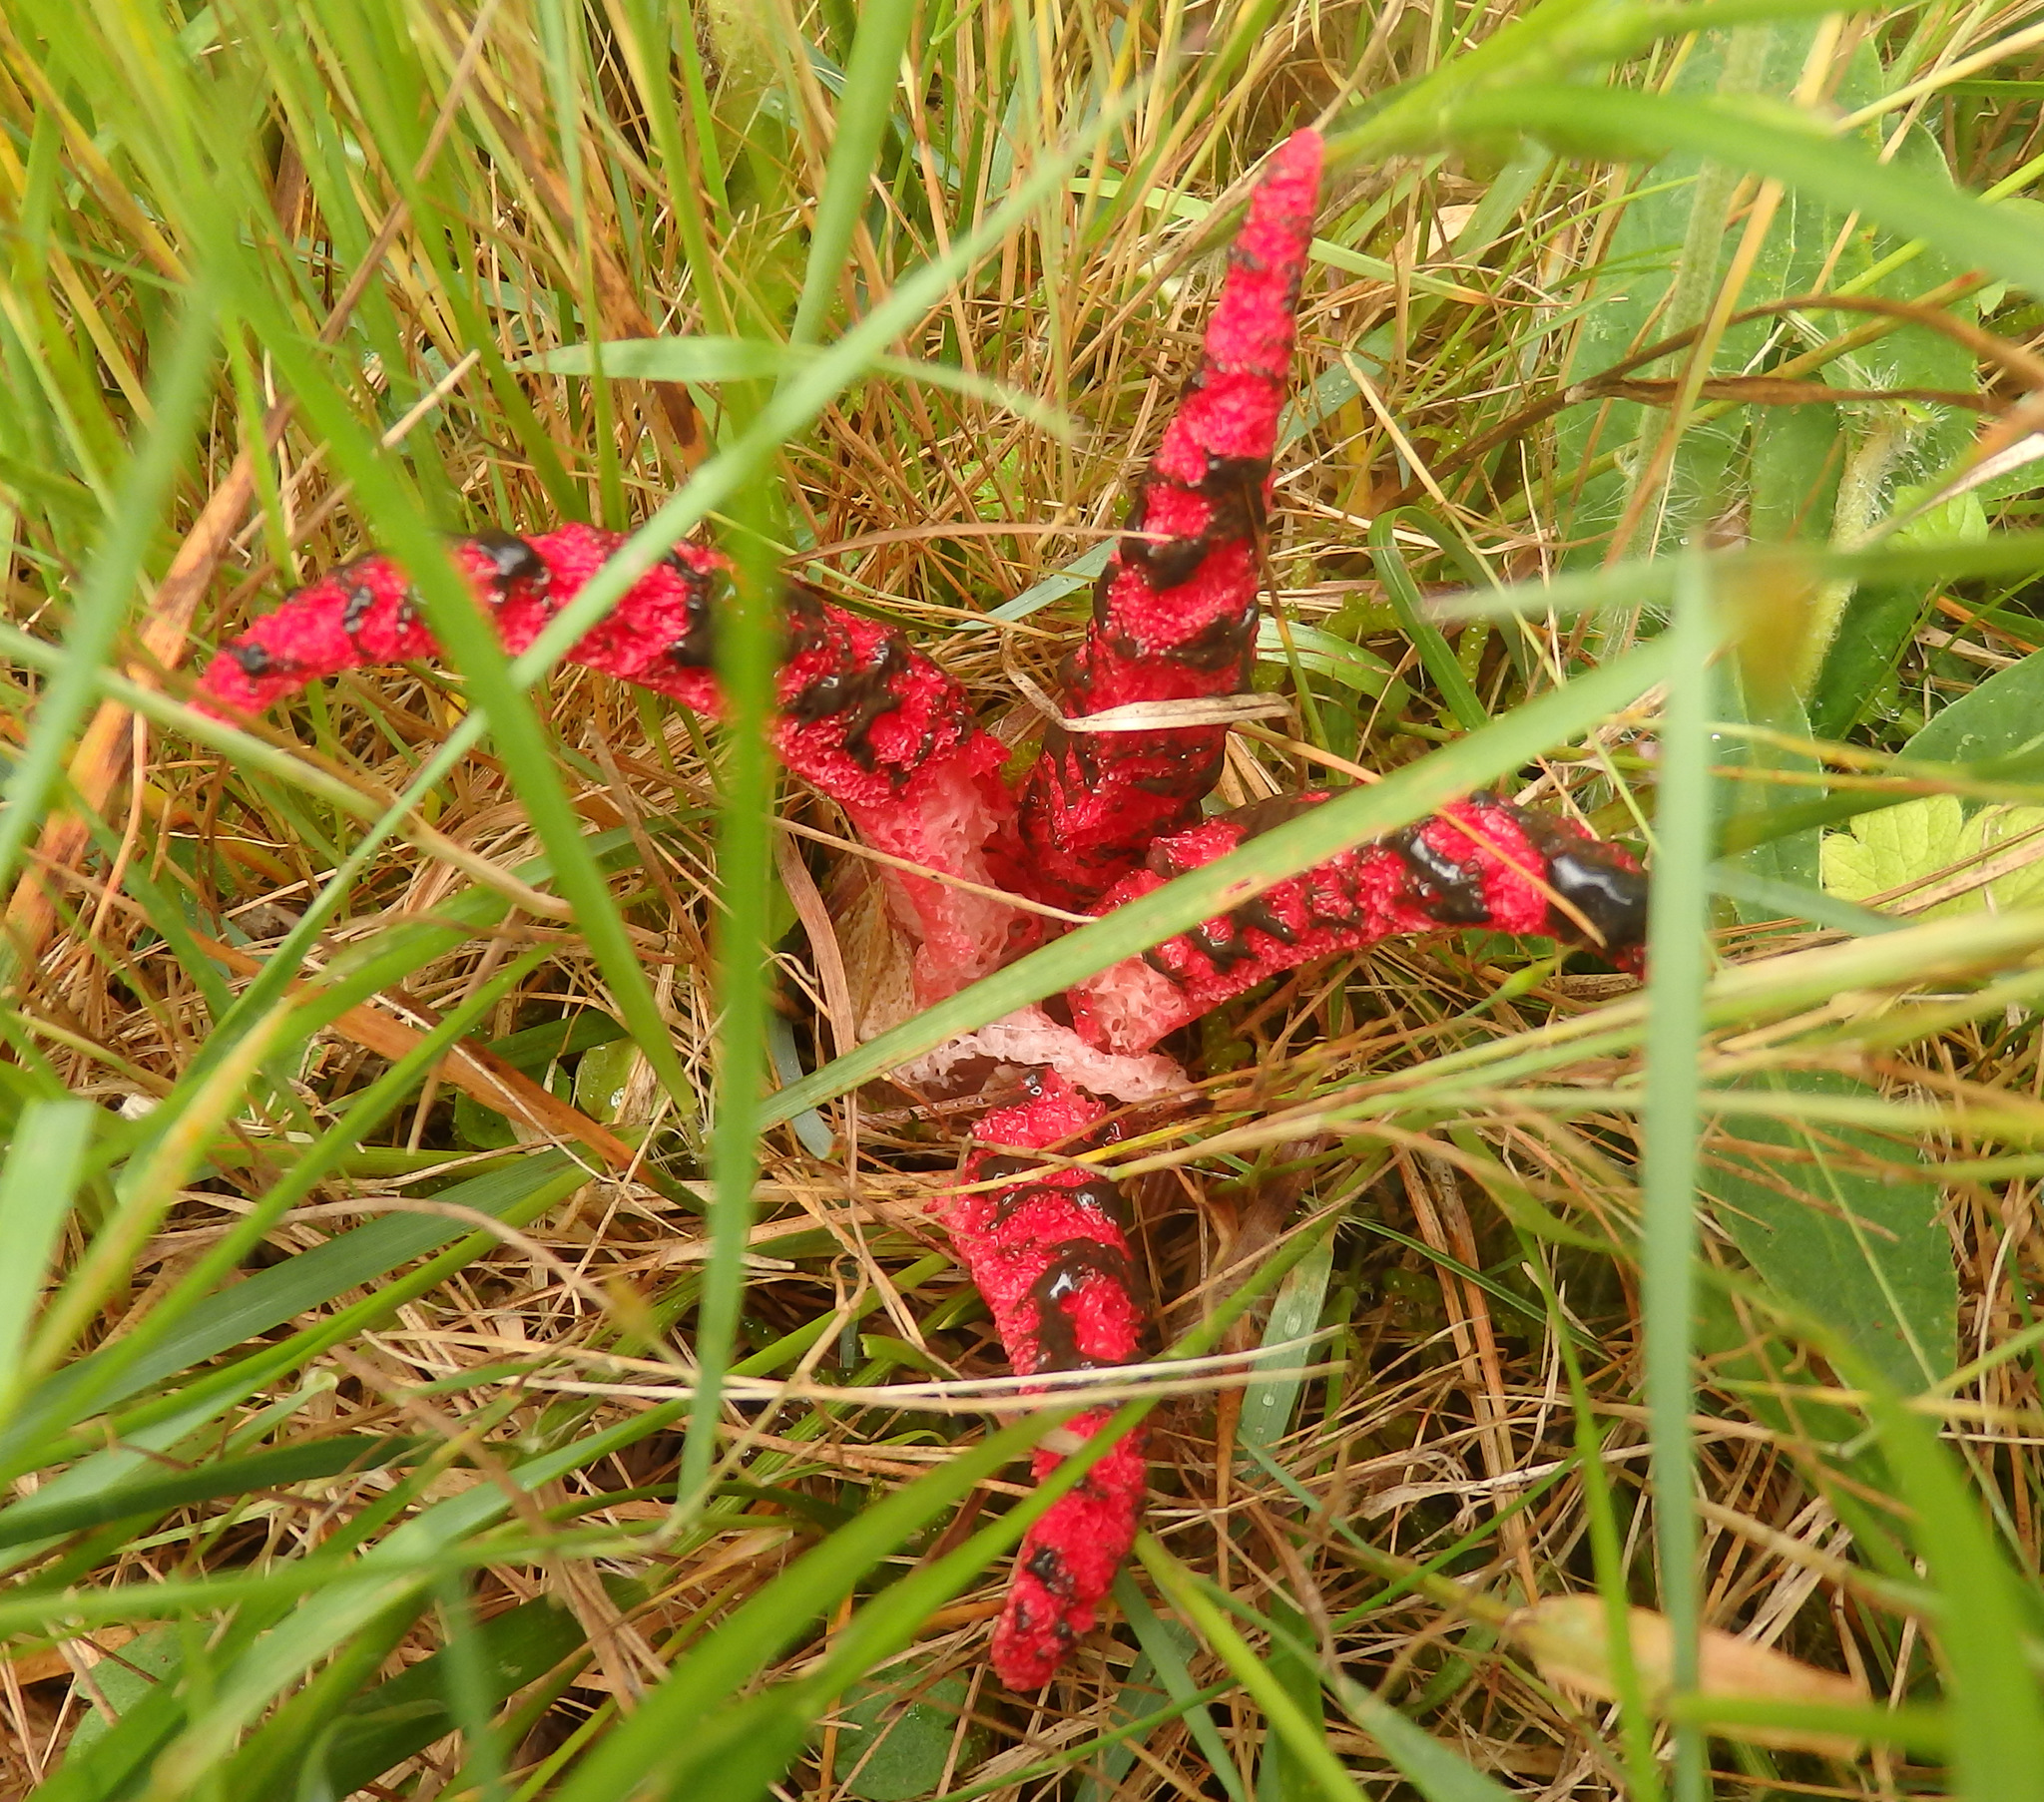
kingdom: Fungi
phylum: Basidiomycota
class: Agaricomycetes
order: Phallales
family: Phallaceae
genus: Clathrus
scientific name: Clathrus archeri
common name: Devil's fingers
